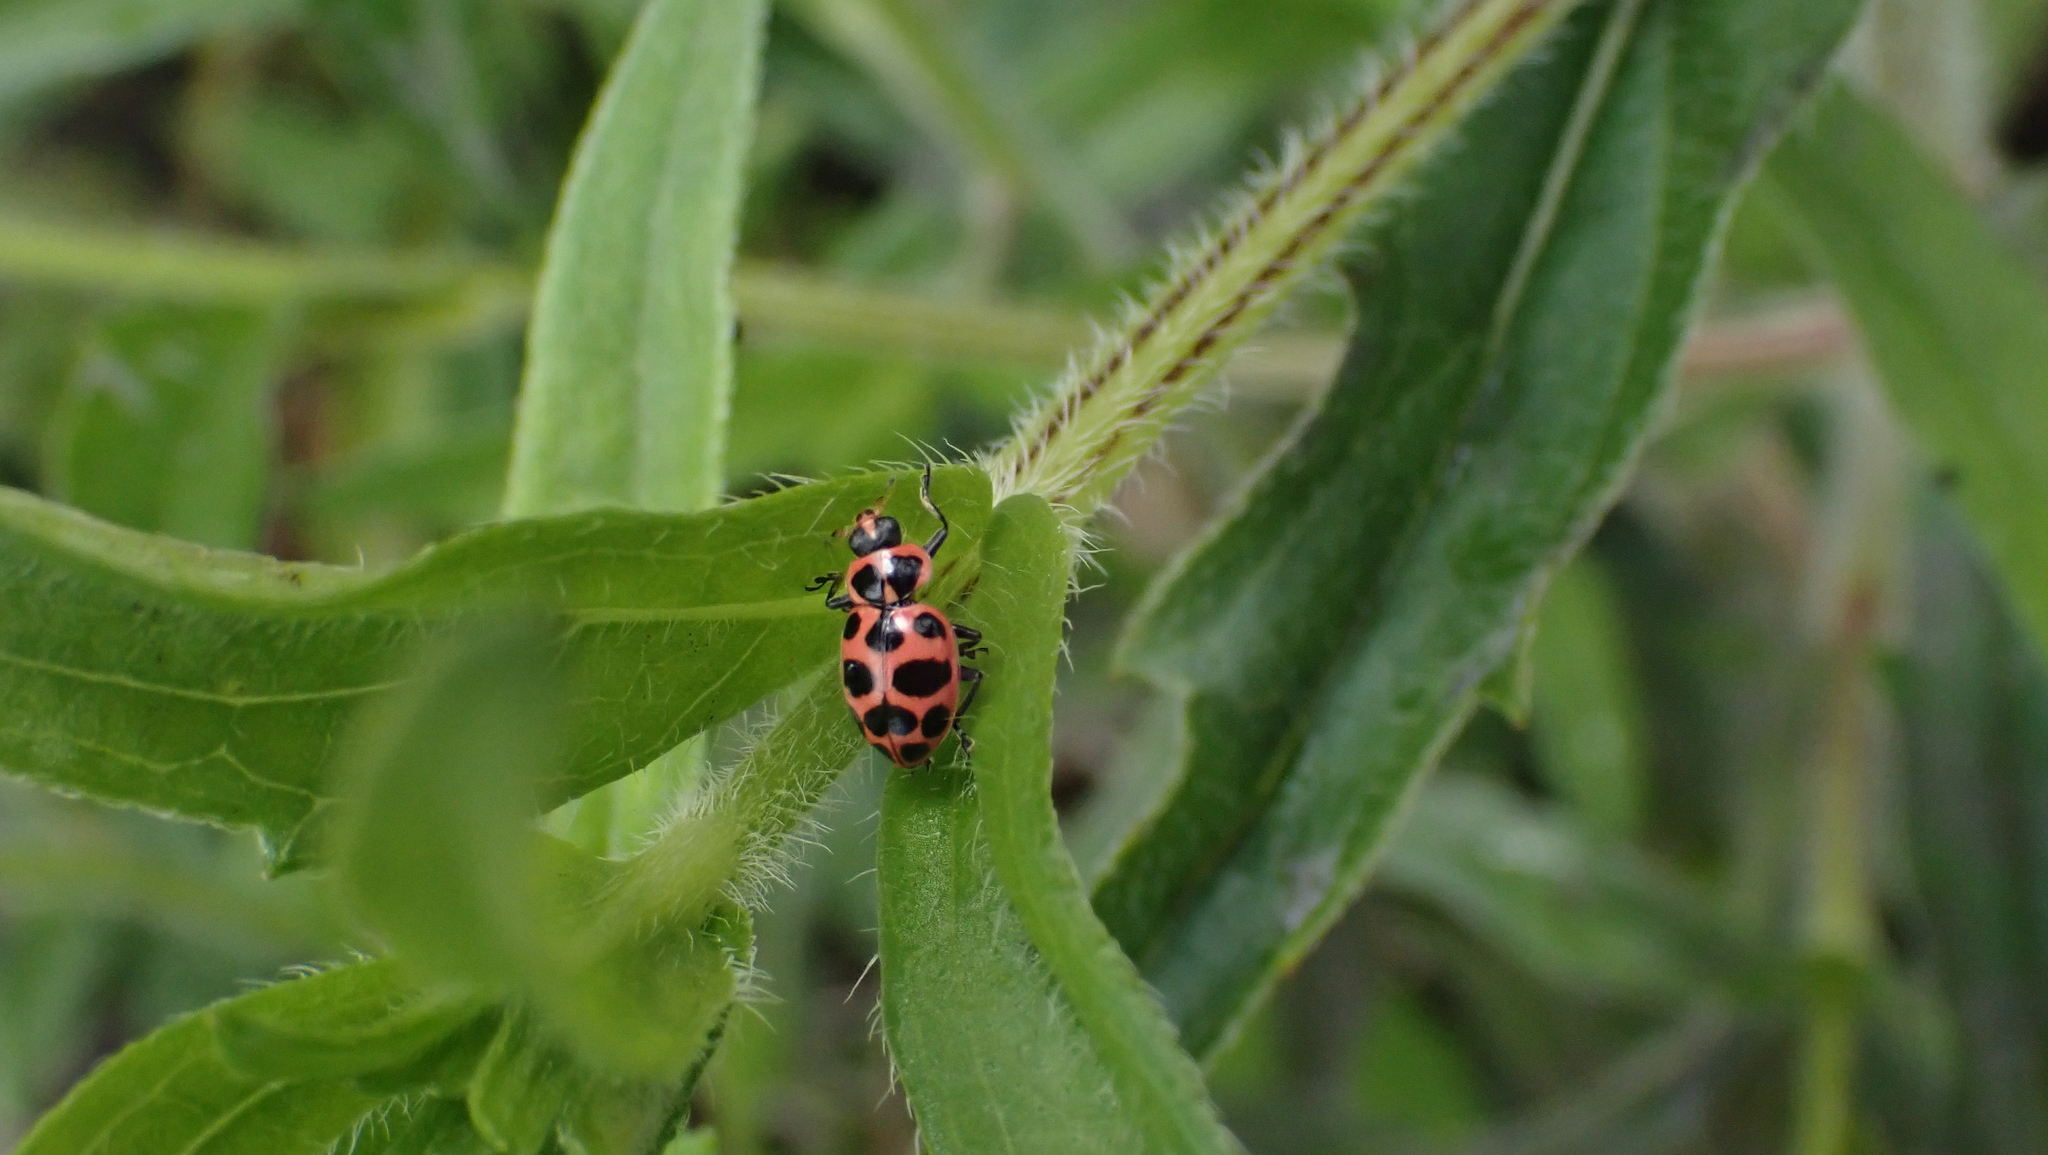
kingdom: Animalia
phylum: Arthropoda
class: Insecta
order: Coleoptera
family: Coccinellidae
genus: Coleomegilla
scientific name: Coleomegilla maculata
